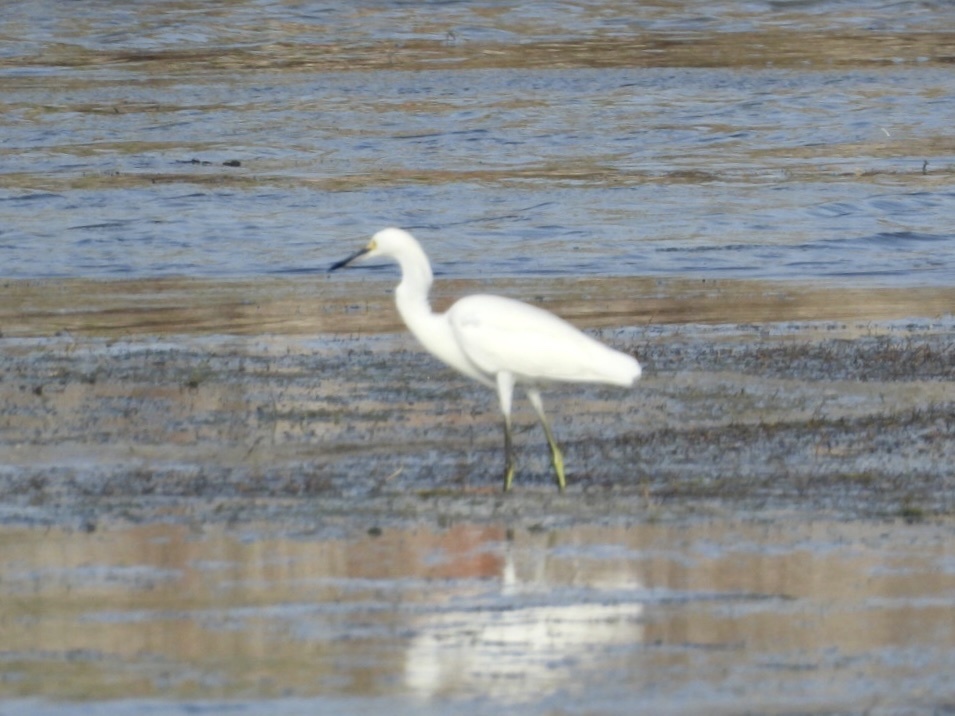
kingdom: Animalia
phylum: Chordata
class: Aves
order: Pelecaniformes
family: Ardeidae
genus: Egretta
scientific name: Egretta thula
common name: Snowy egret
